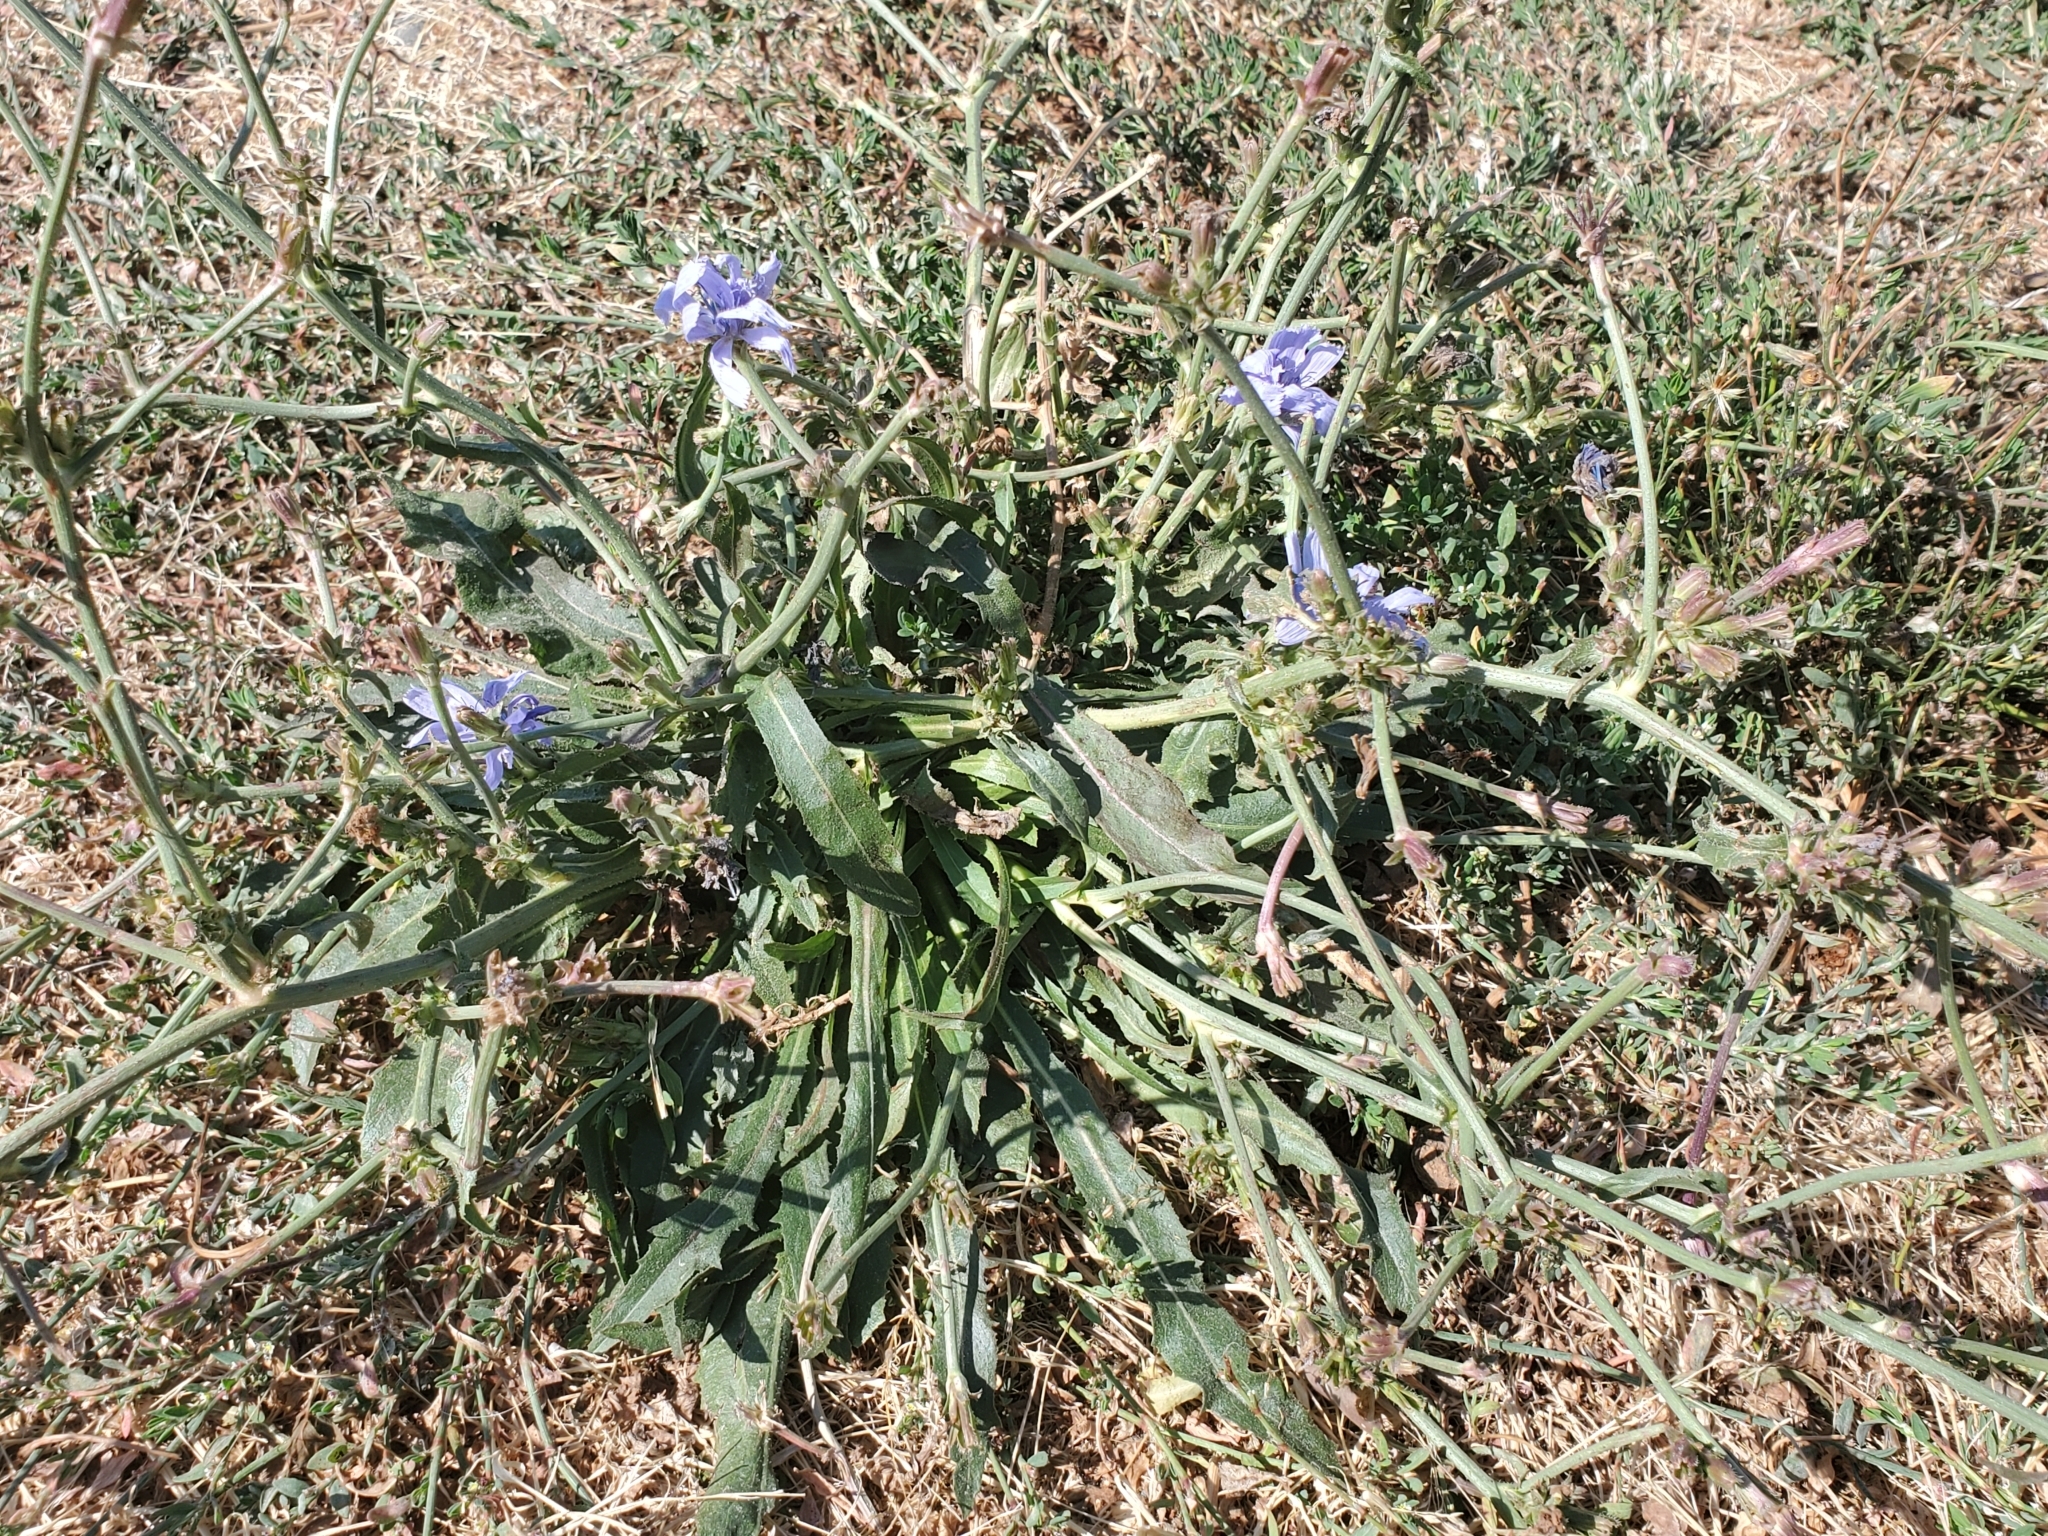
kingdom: Plantae
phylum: Tracheophyta
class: Magnoliopsida
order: Asterales
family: Asteraceae
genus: Cichorium
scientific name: Cichorium intybus
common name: Chicory
